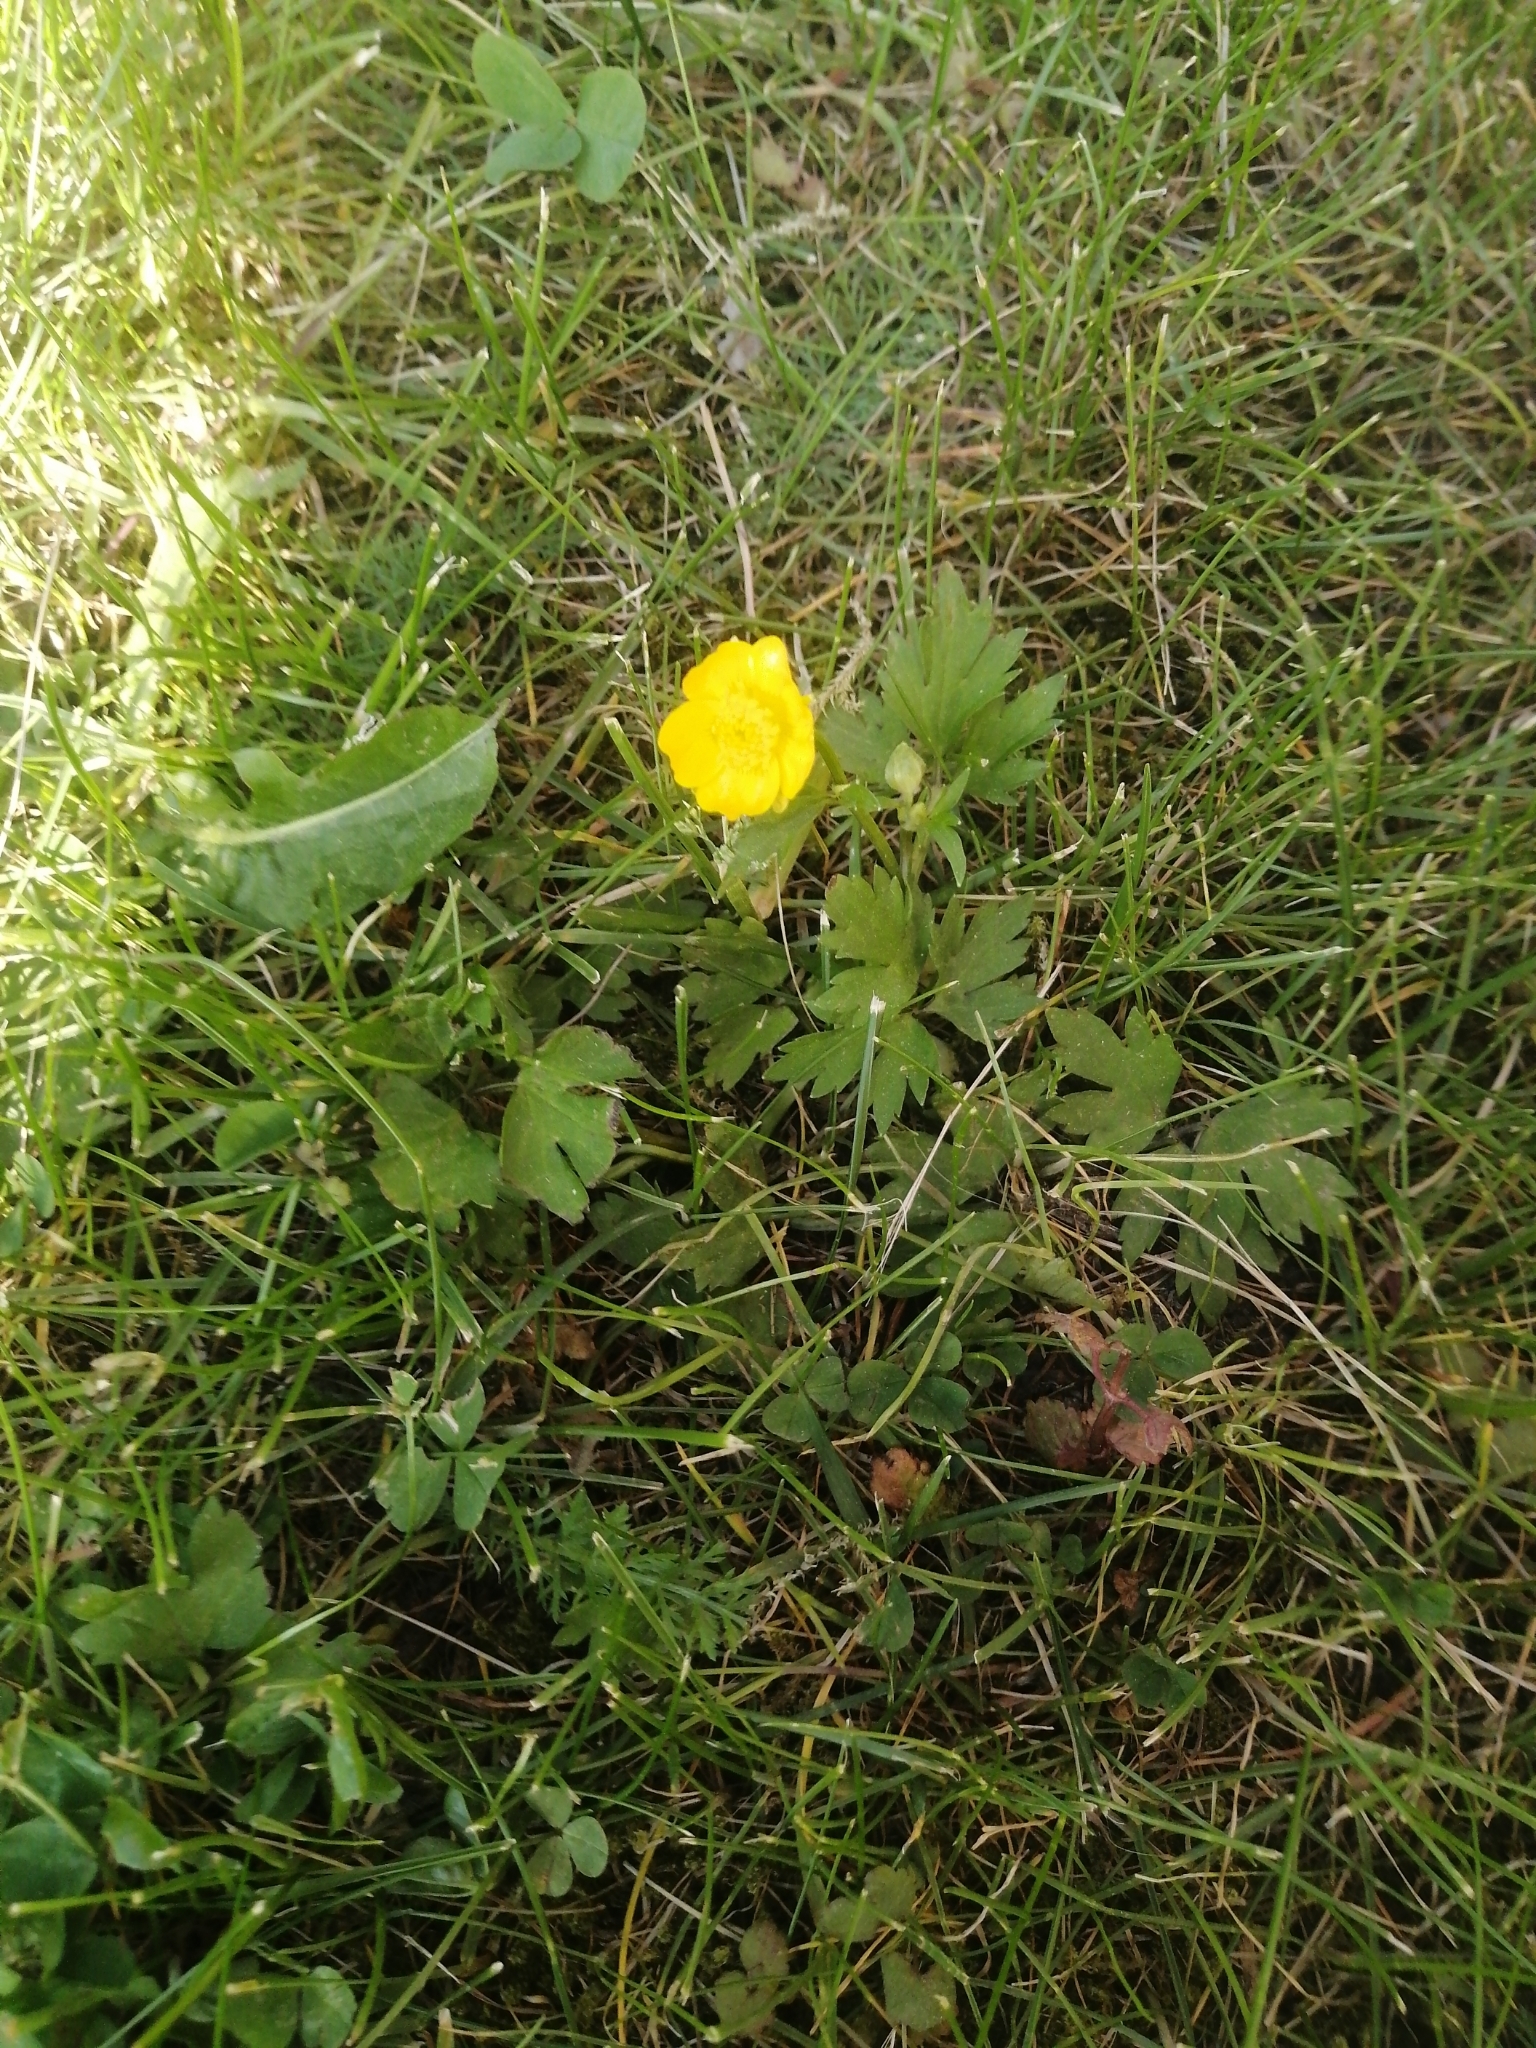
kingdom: Plantae
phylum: Tracheophyta
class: Magnoliopsida
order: Ranunculales
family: Ranunculaceae
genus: Ranunculus
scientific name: Ranunculus repens
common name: Creeping buttercup
